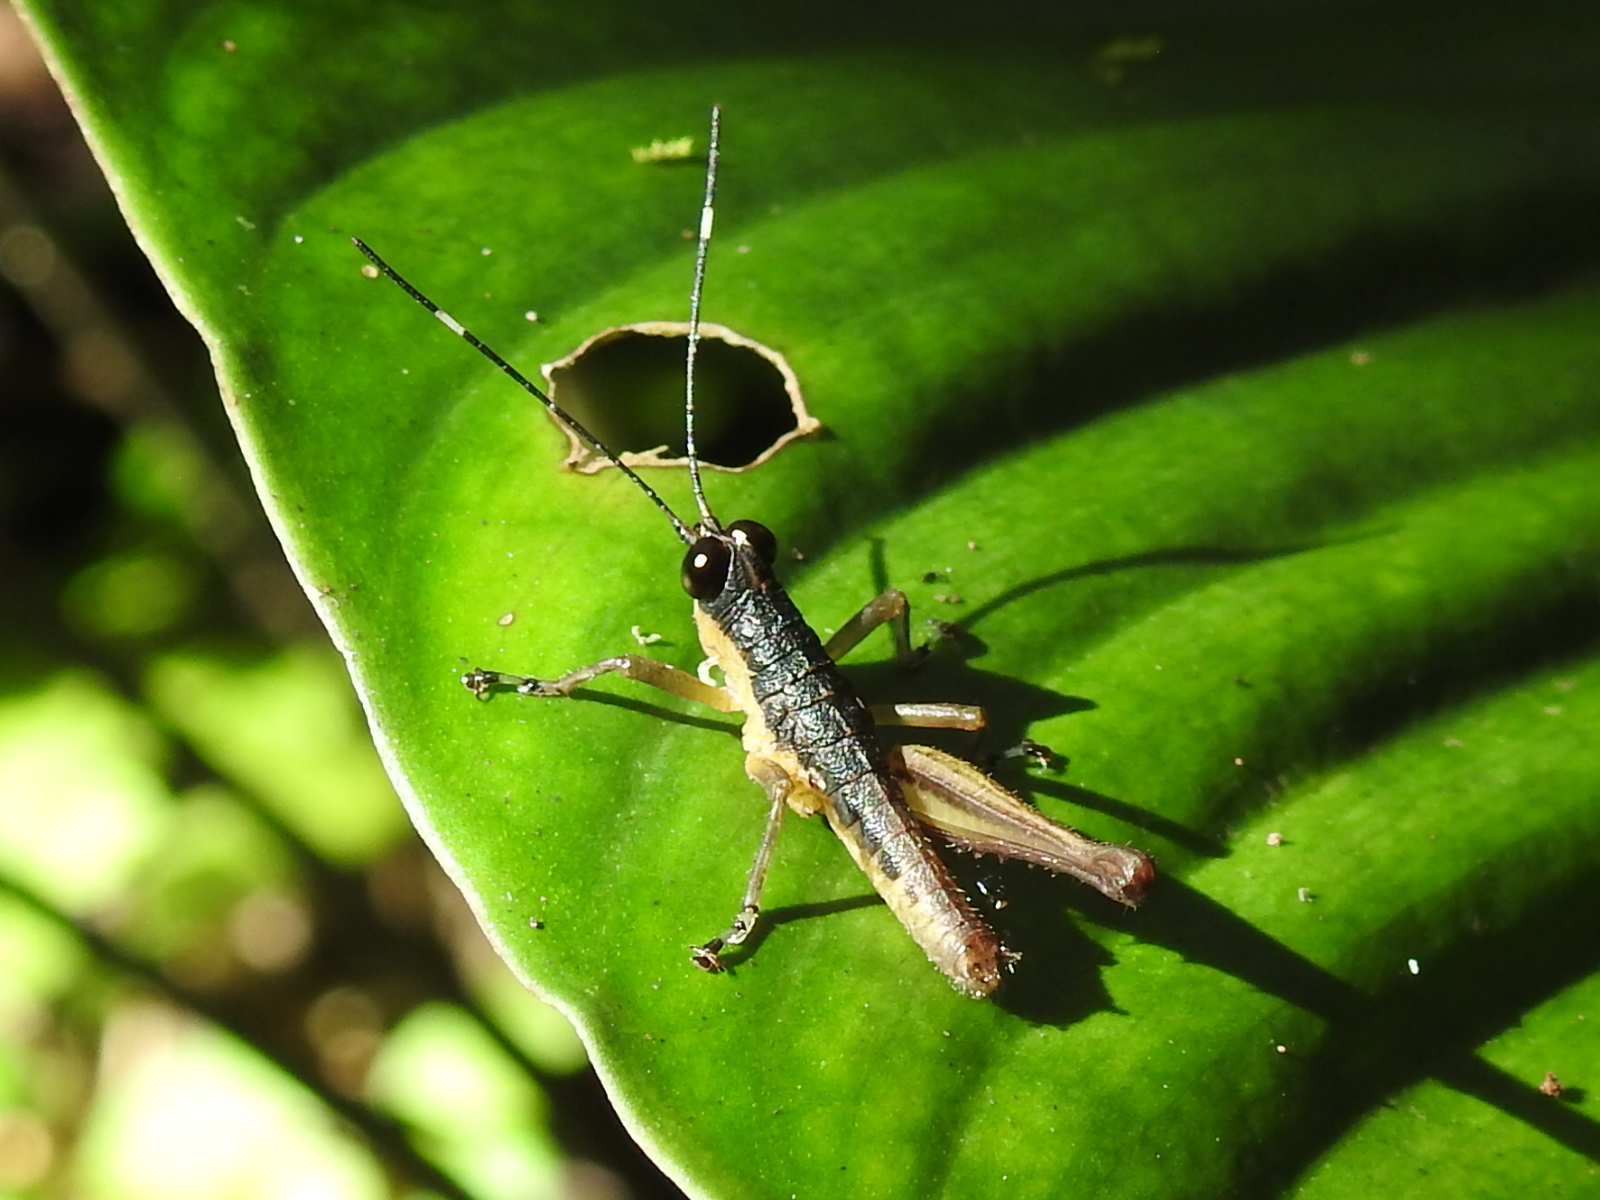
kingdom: Animalia
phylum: Arthropoda
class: Insecta
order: Orthoptera
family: Acrididae
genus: Ateliacris
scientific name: Ateliacris annulicornis
